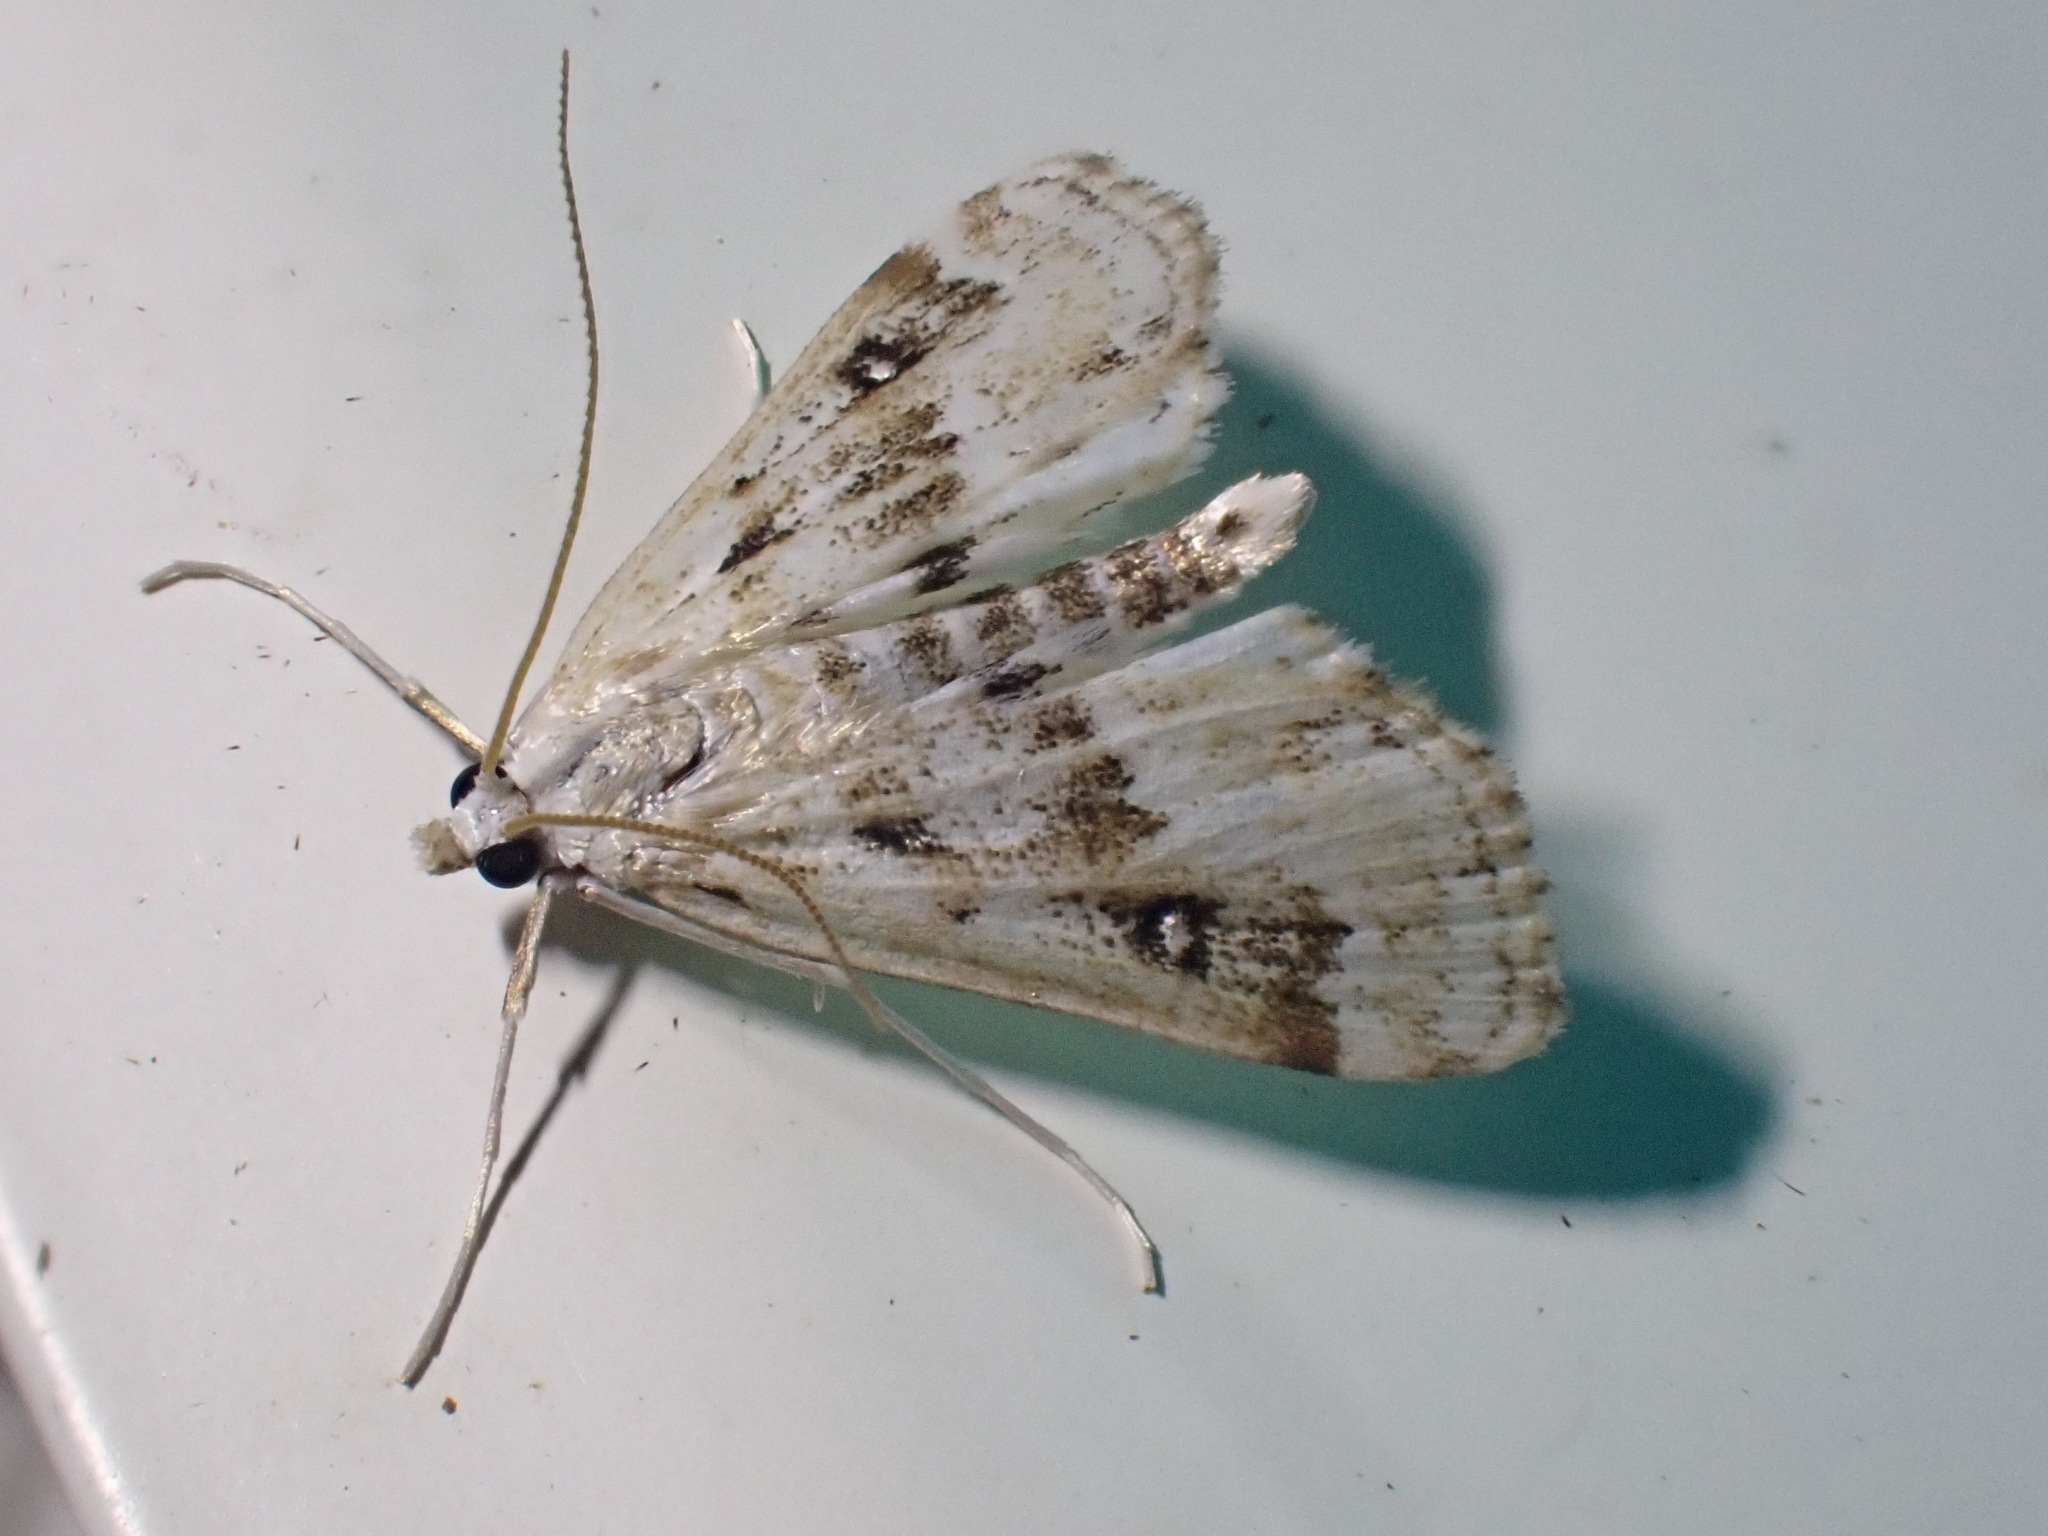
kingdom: Animalia
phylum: Arthropoda
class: Insecta
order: Lepidoptera
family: Crambidae
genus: Parapoynx
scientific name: Parapoynx stratiotata
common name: Ringed china-mark
